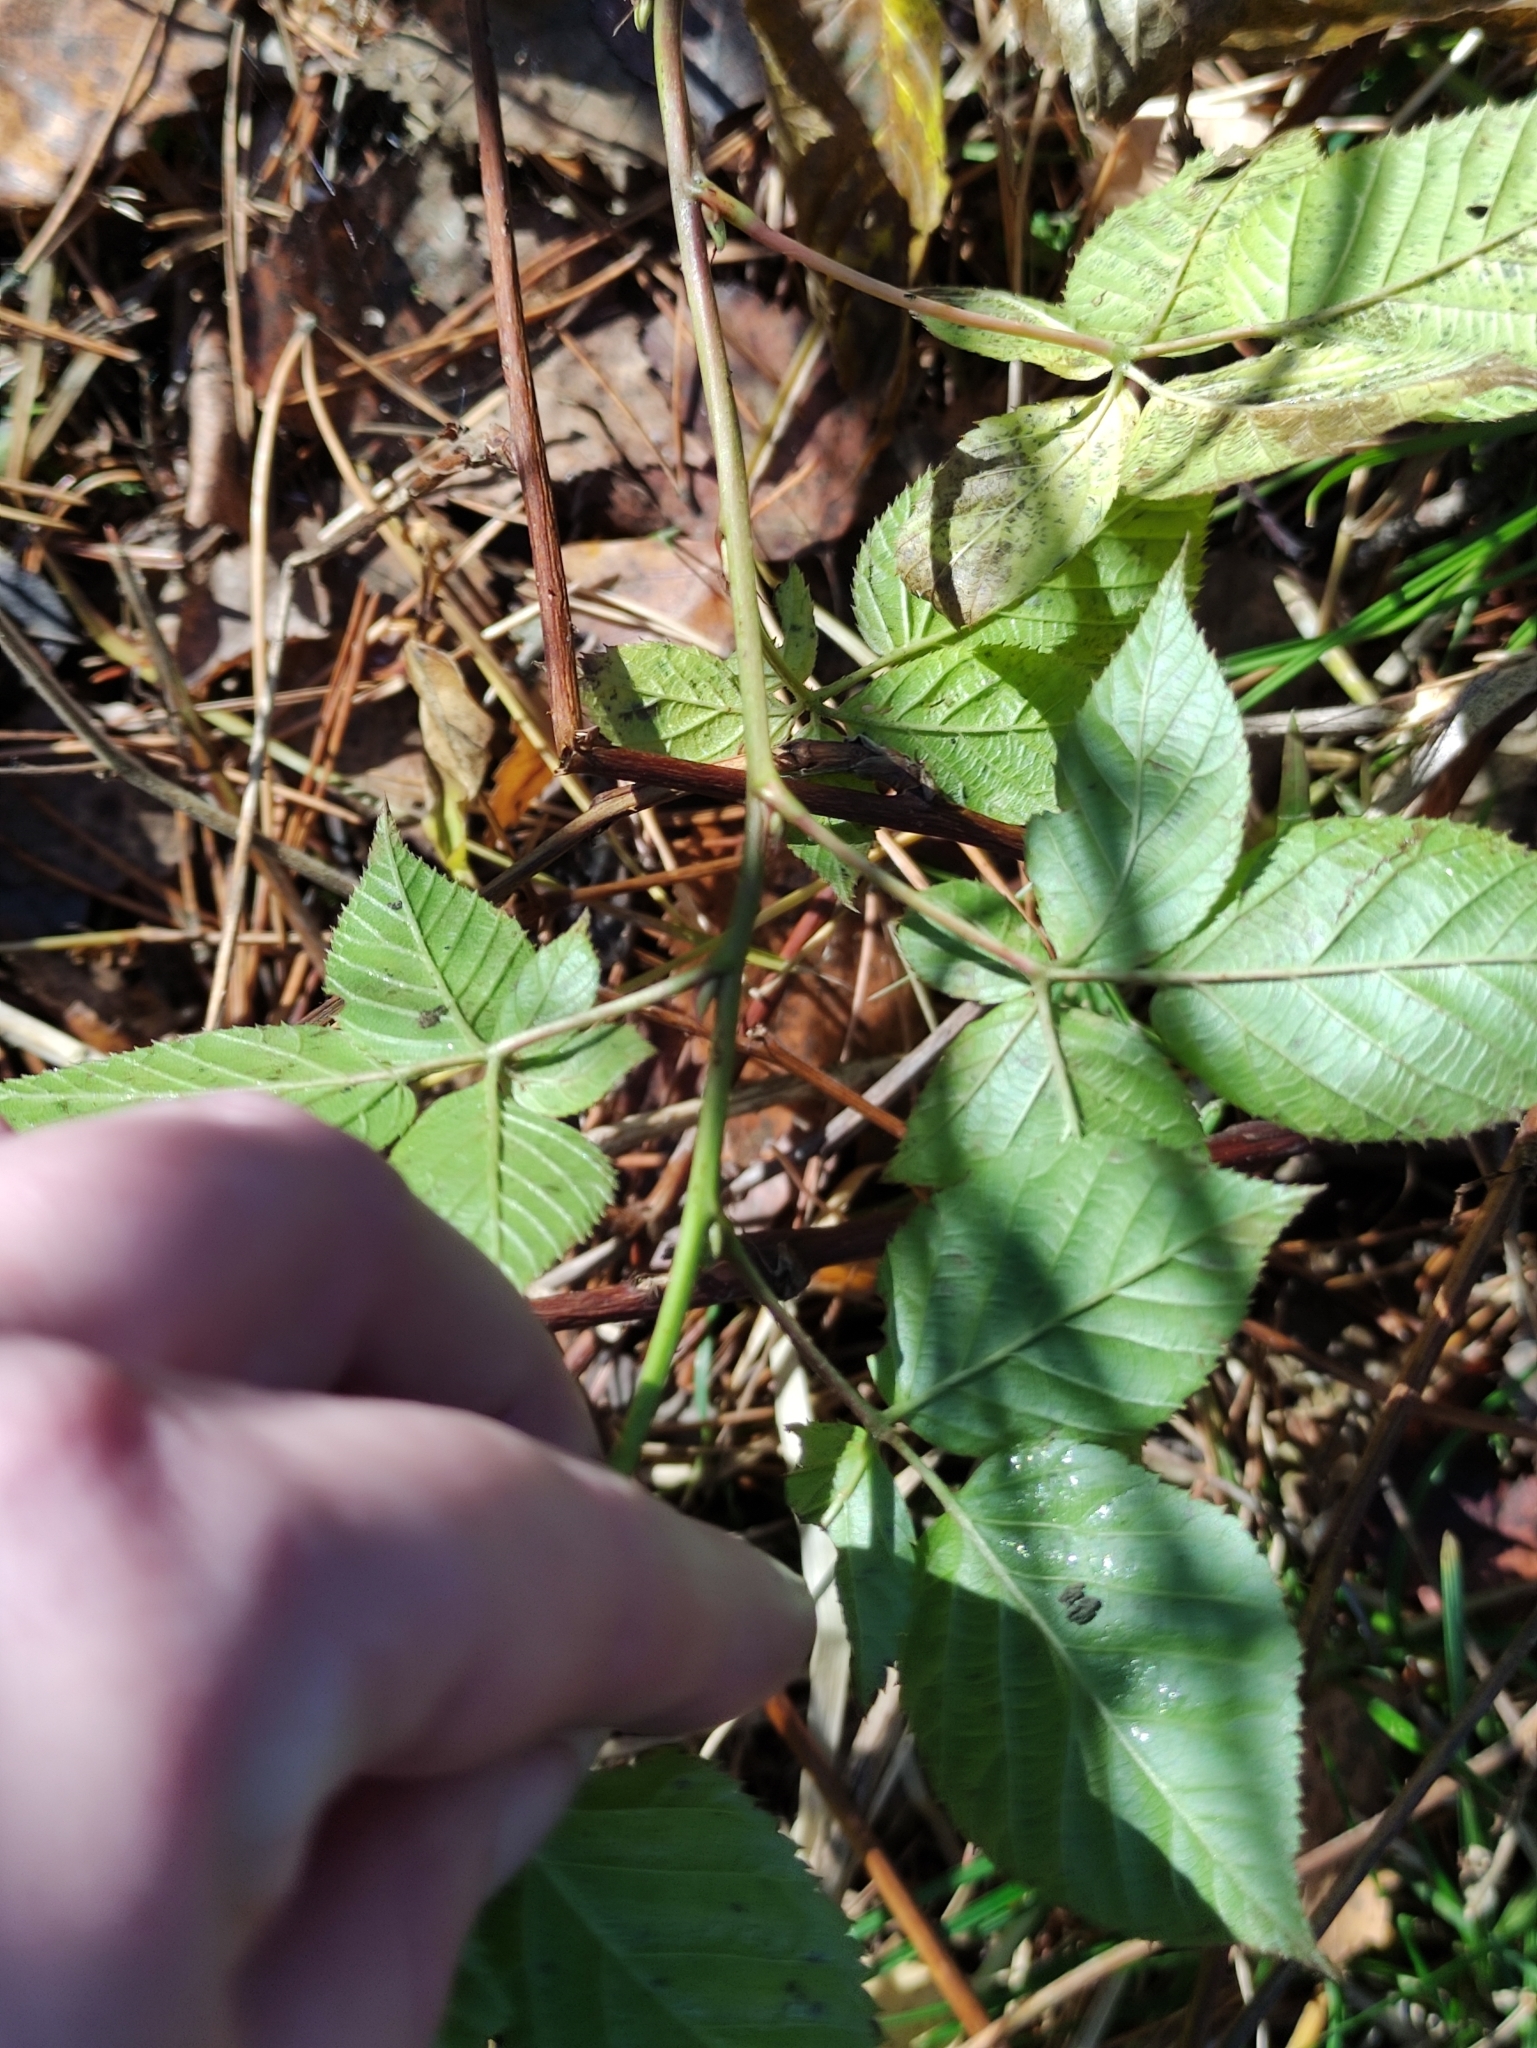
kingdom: Plantae
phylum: Tracheophyta
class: Magnoliopsida
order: Rosales
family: Rosaceae
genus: Rubus
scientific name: Rubus idaeus
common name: Raspberry
